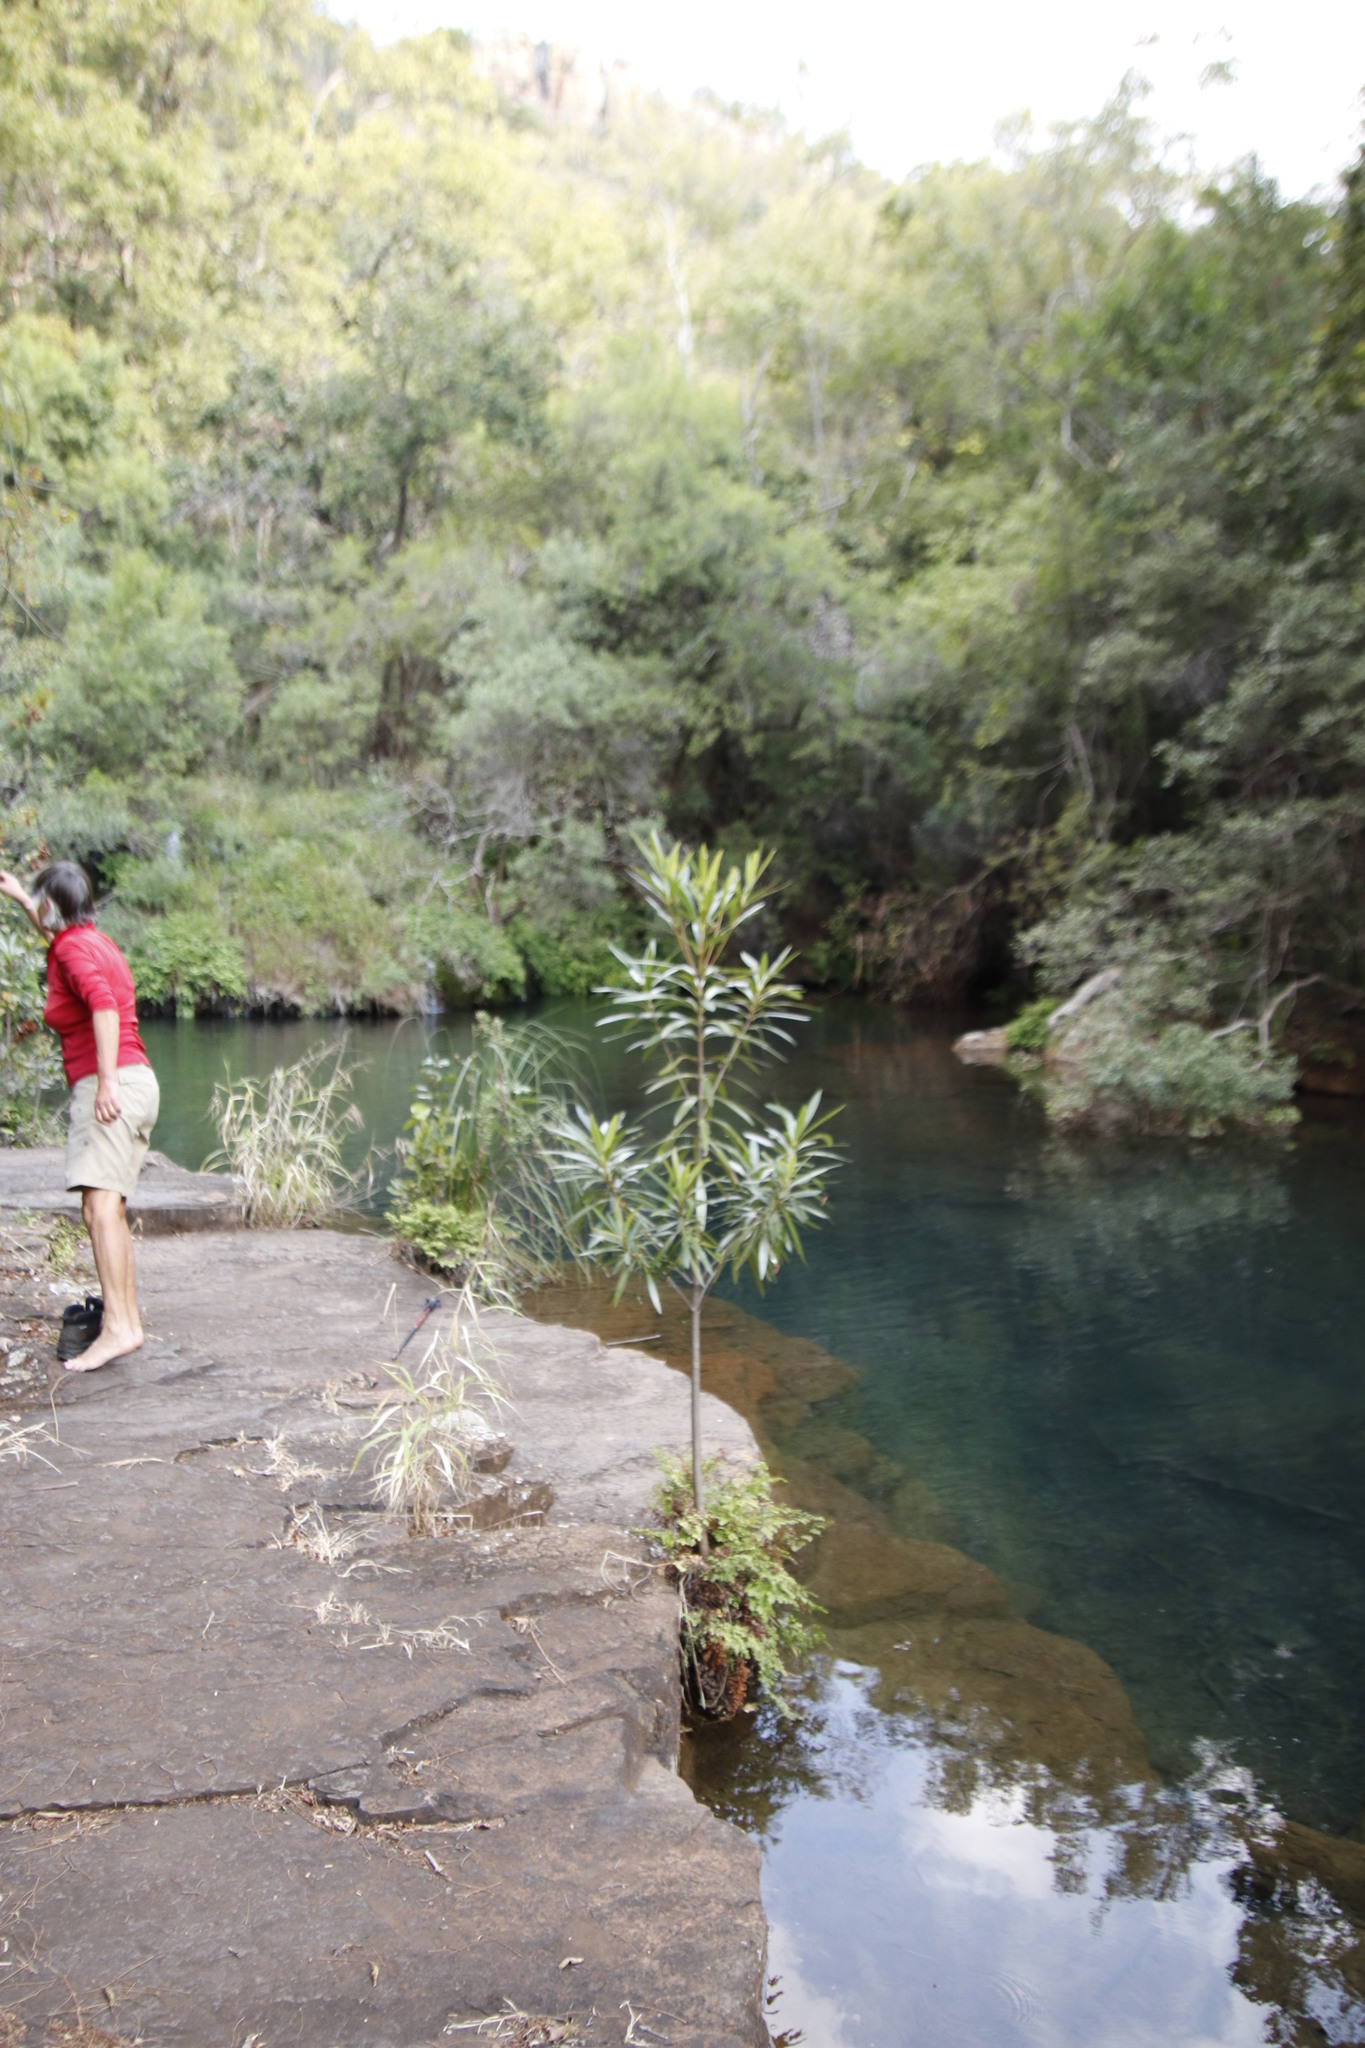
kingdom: Plantae
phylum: Tracheophyta
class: Magnoliopsida
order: Gentianales
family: Rubiaceae
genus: Breonadia
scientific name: Breonadia salicina
